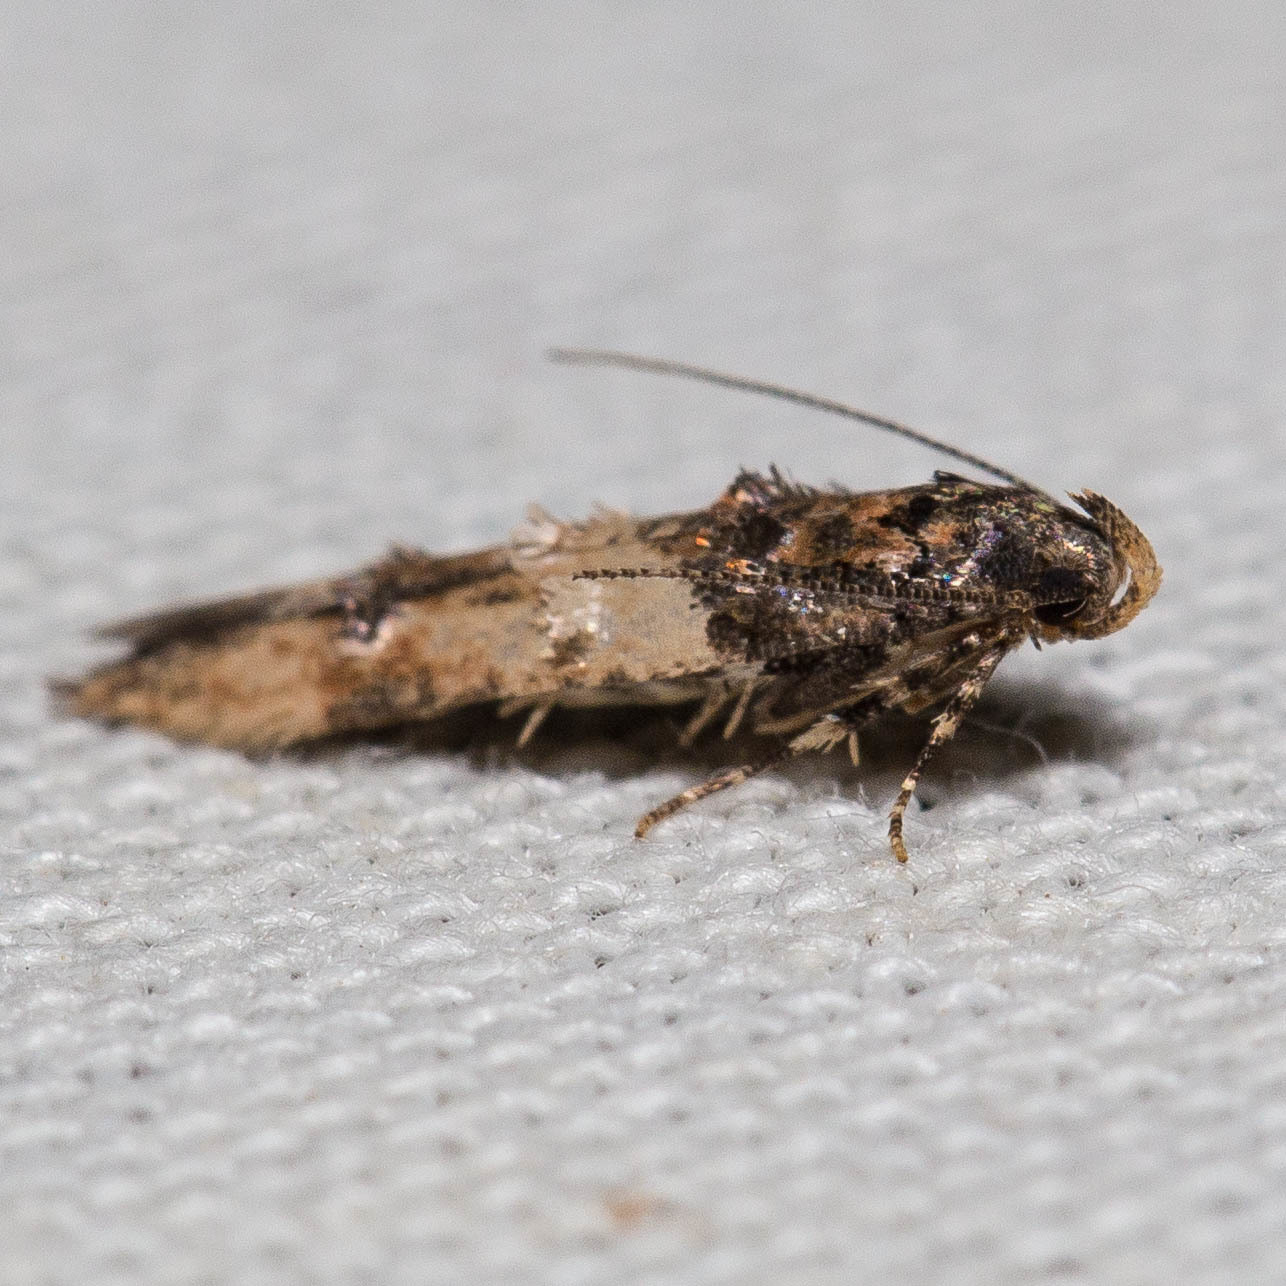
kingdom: Animalia
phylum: Arthropoda
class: Insecta
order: Lepidoptera
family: Cosmopterigidae
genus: Walshia
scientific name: Walshia miscecolorella
